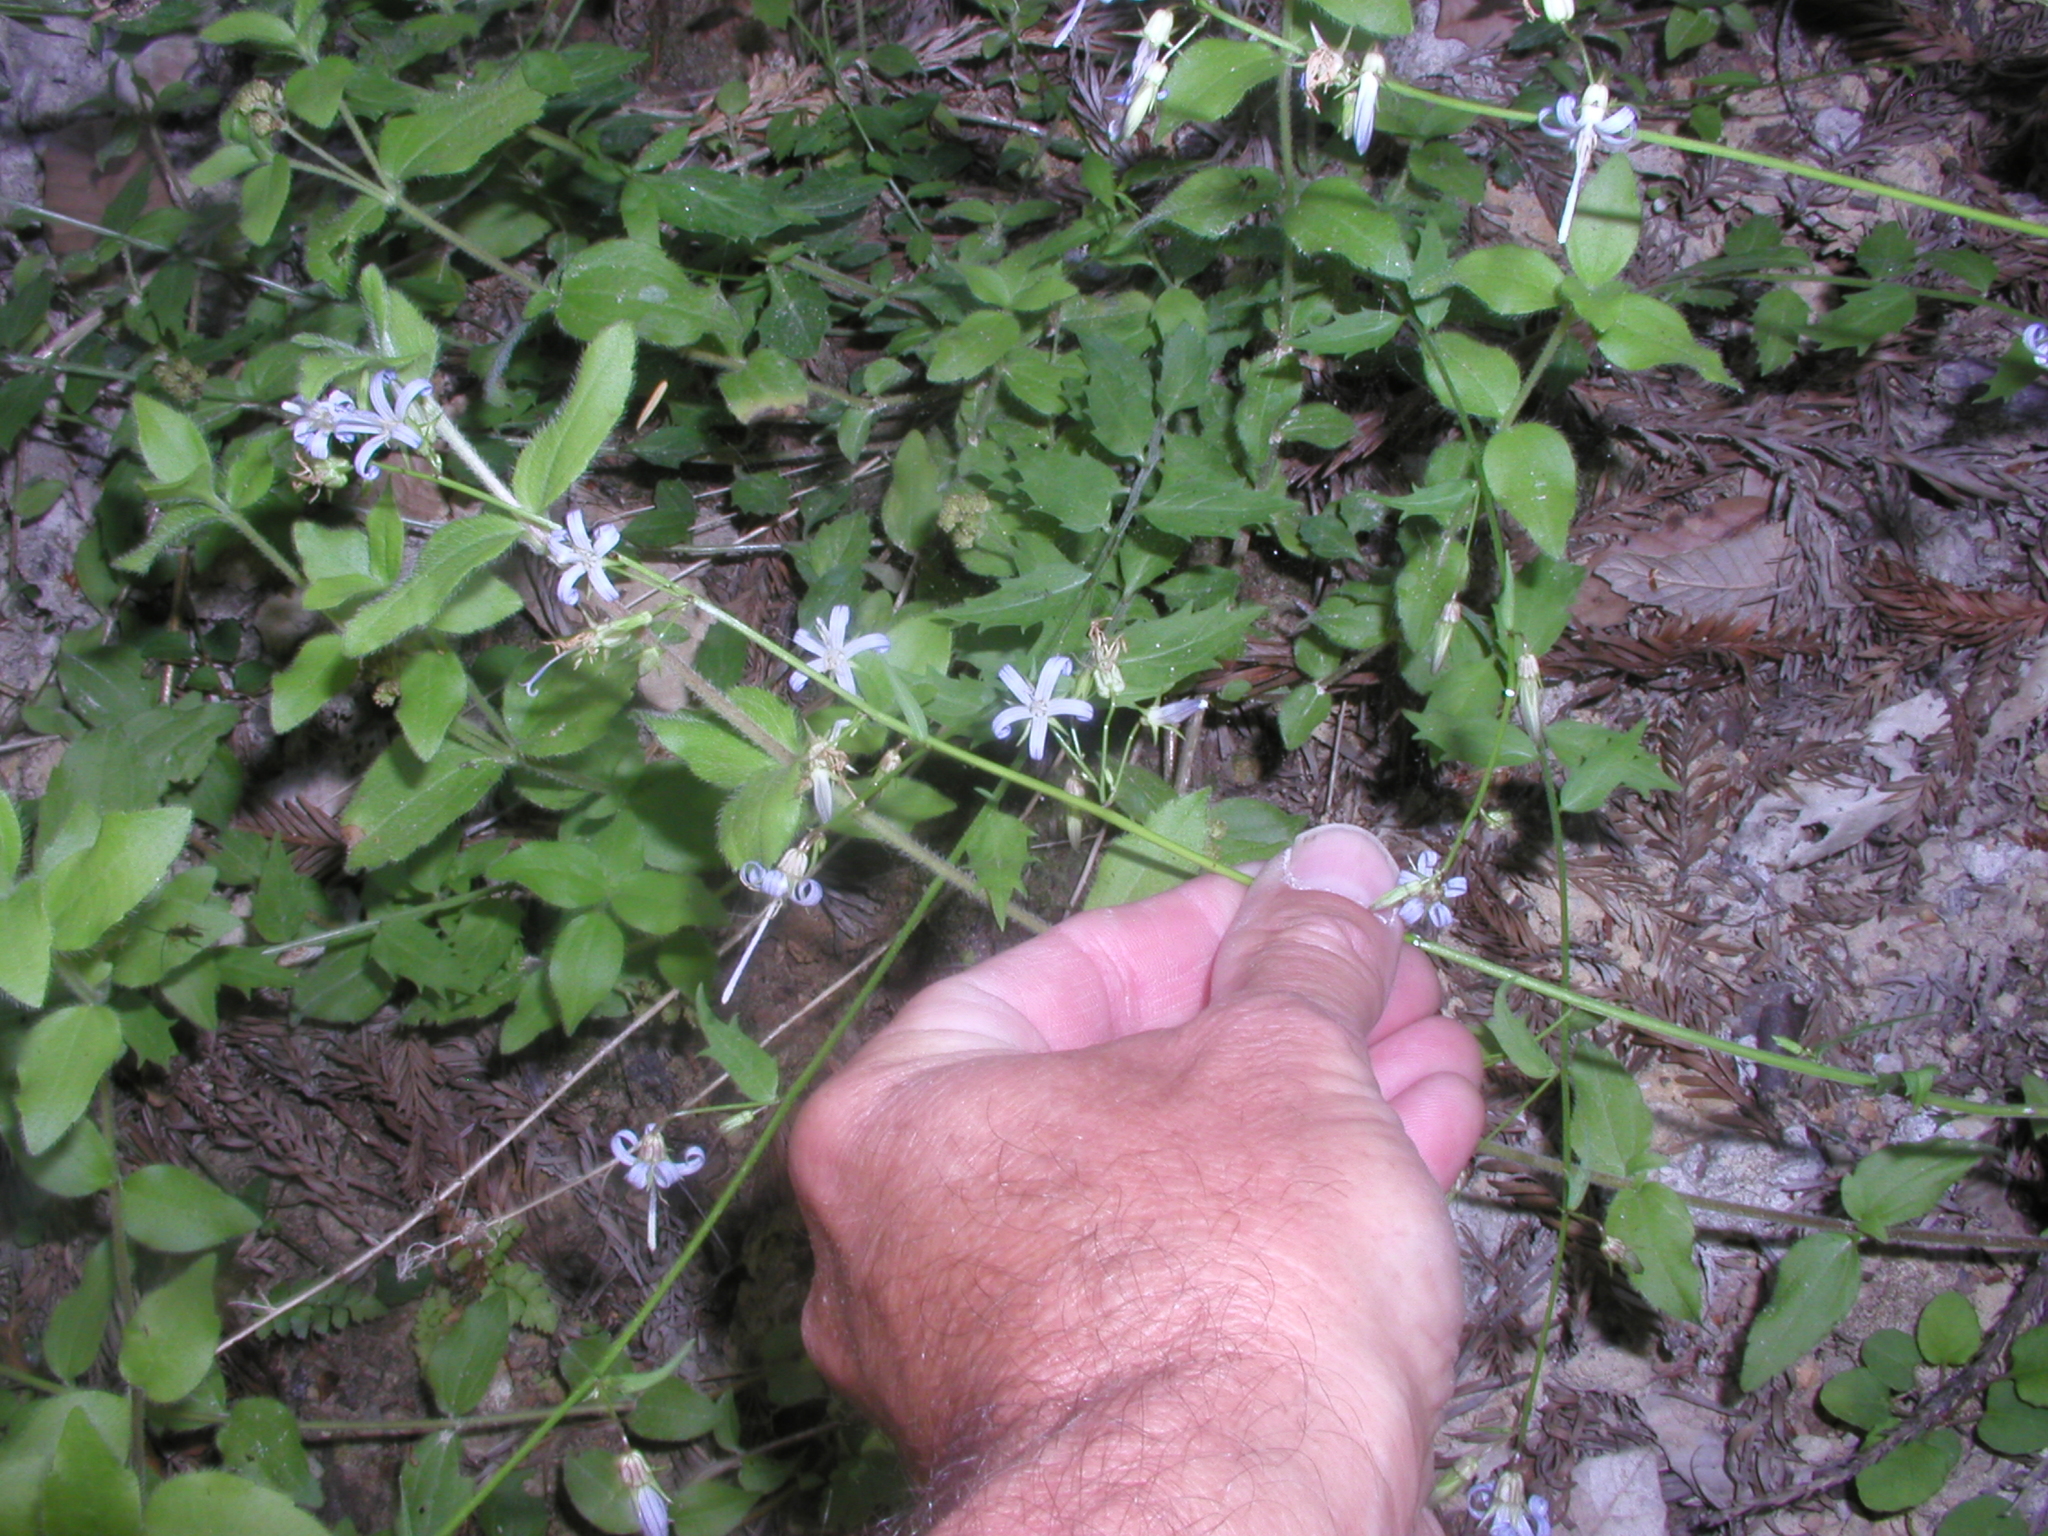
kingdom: Plantae
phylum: Tracheophyta
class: Magnoliopsida
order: Asterales
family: Campanulaceae
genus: Smithiastrum
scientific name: Smithiastrum prenanthoides
